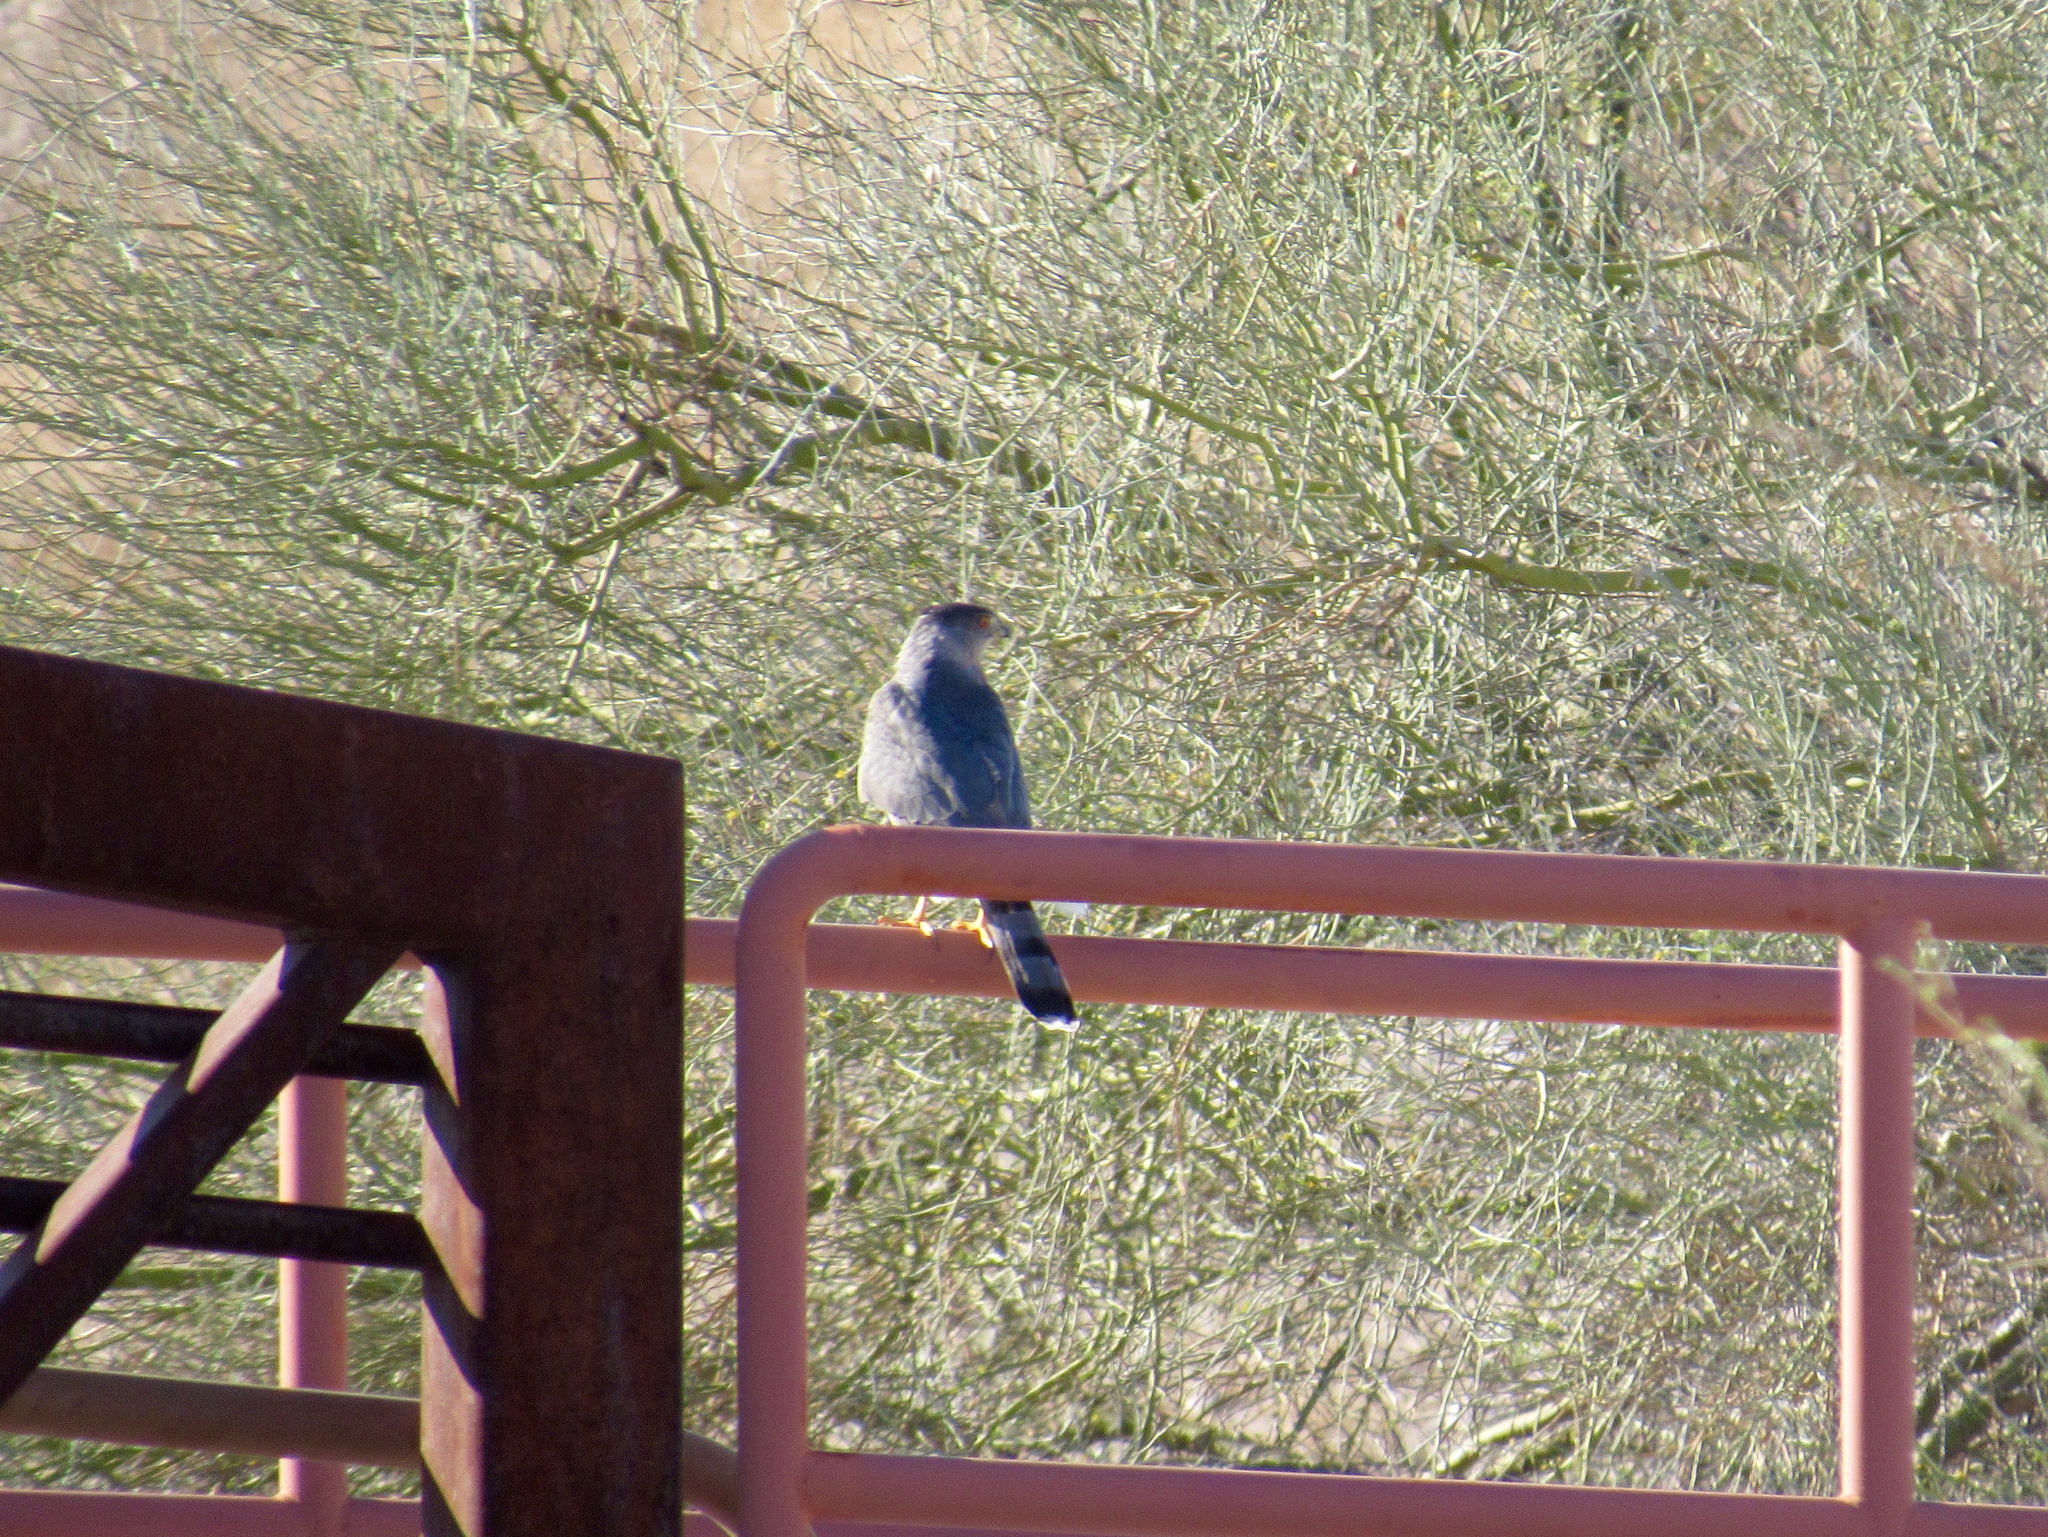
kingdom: Animalia
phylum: Chordata
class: Aves
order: Accipitriformes
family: Accipitridae
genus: Accipiter
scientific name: Accipiter cooperii
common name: Cooper's hawk
